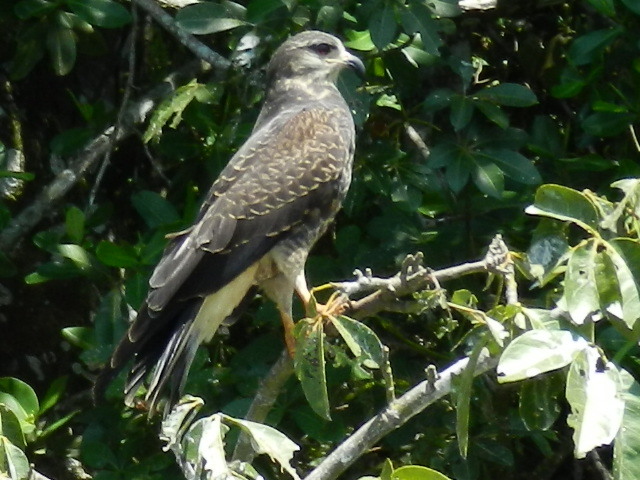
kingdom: Animalia
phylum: Chordata
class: Aves
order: Accipitriformes
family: Accipitridae
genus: Rostrhamus
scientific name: Rostrhamus sociabilis
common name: Snail kite
